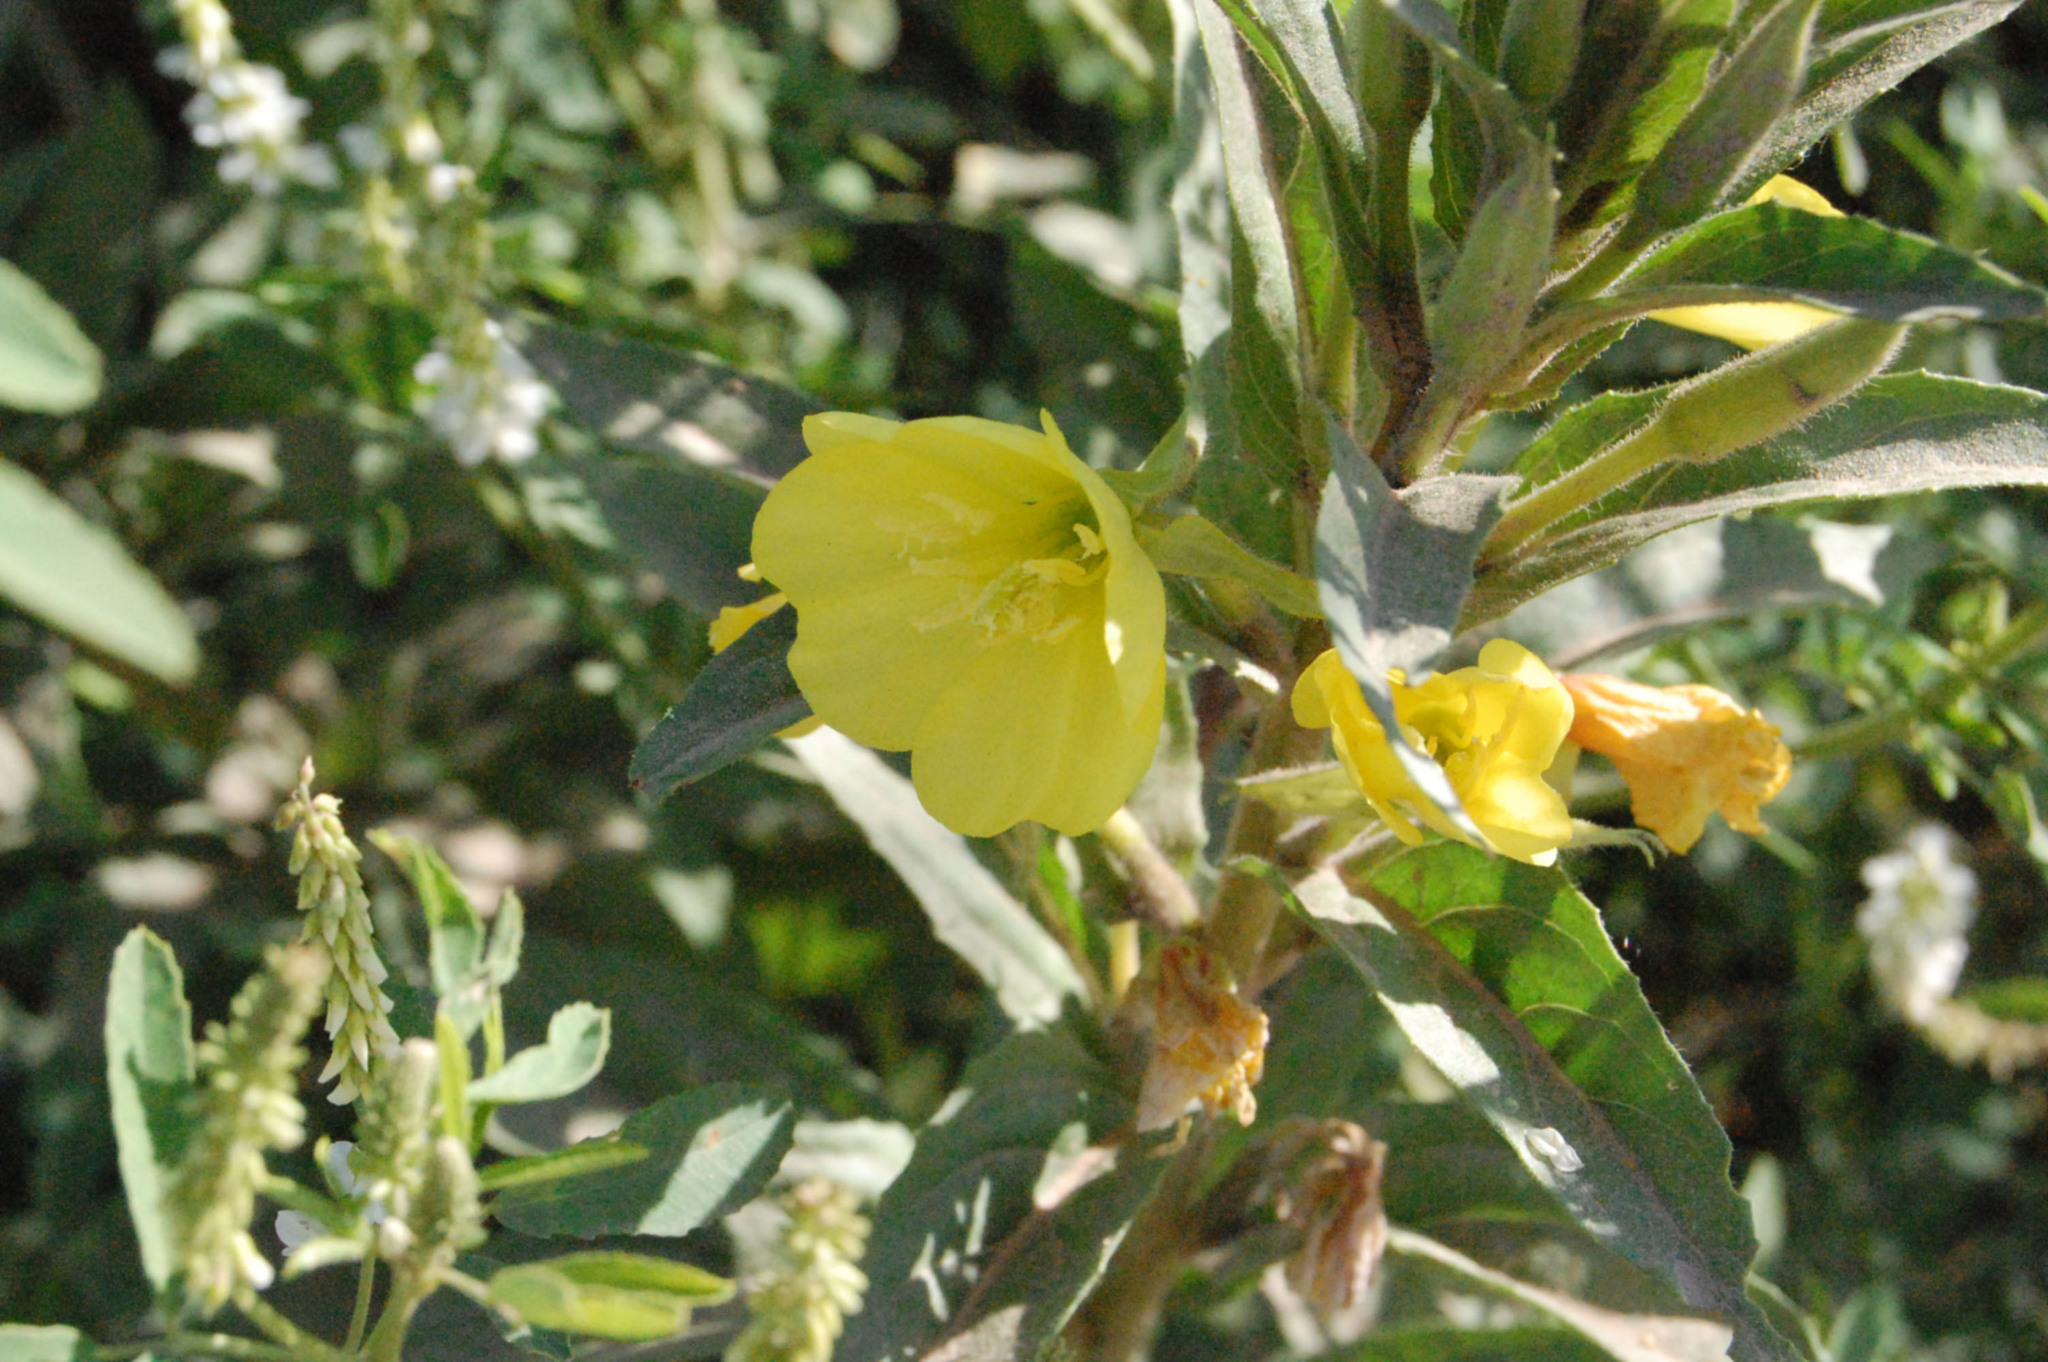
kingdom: Plantae
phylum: Tracheophyta
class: Magnoliopsida
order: Myrtales
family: Onagraceae
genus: Oenothera
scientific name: Oenothera rubricaulis
